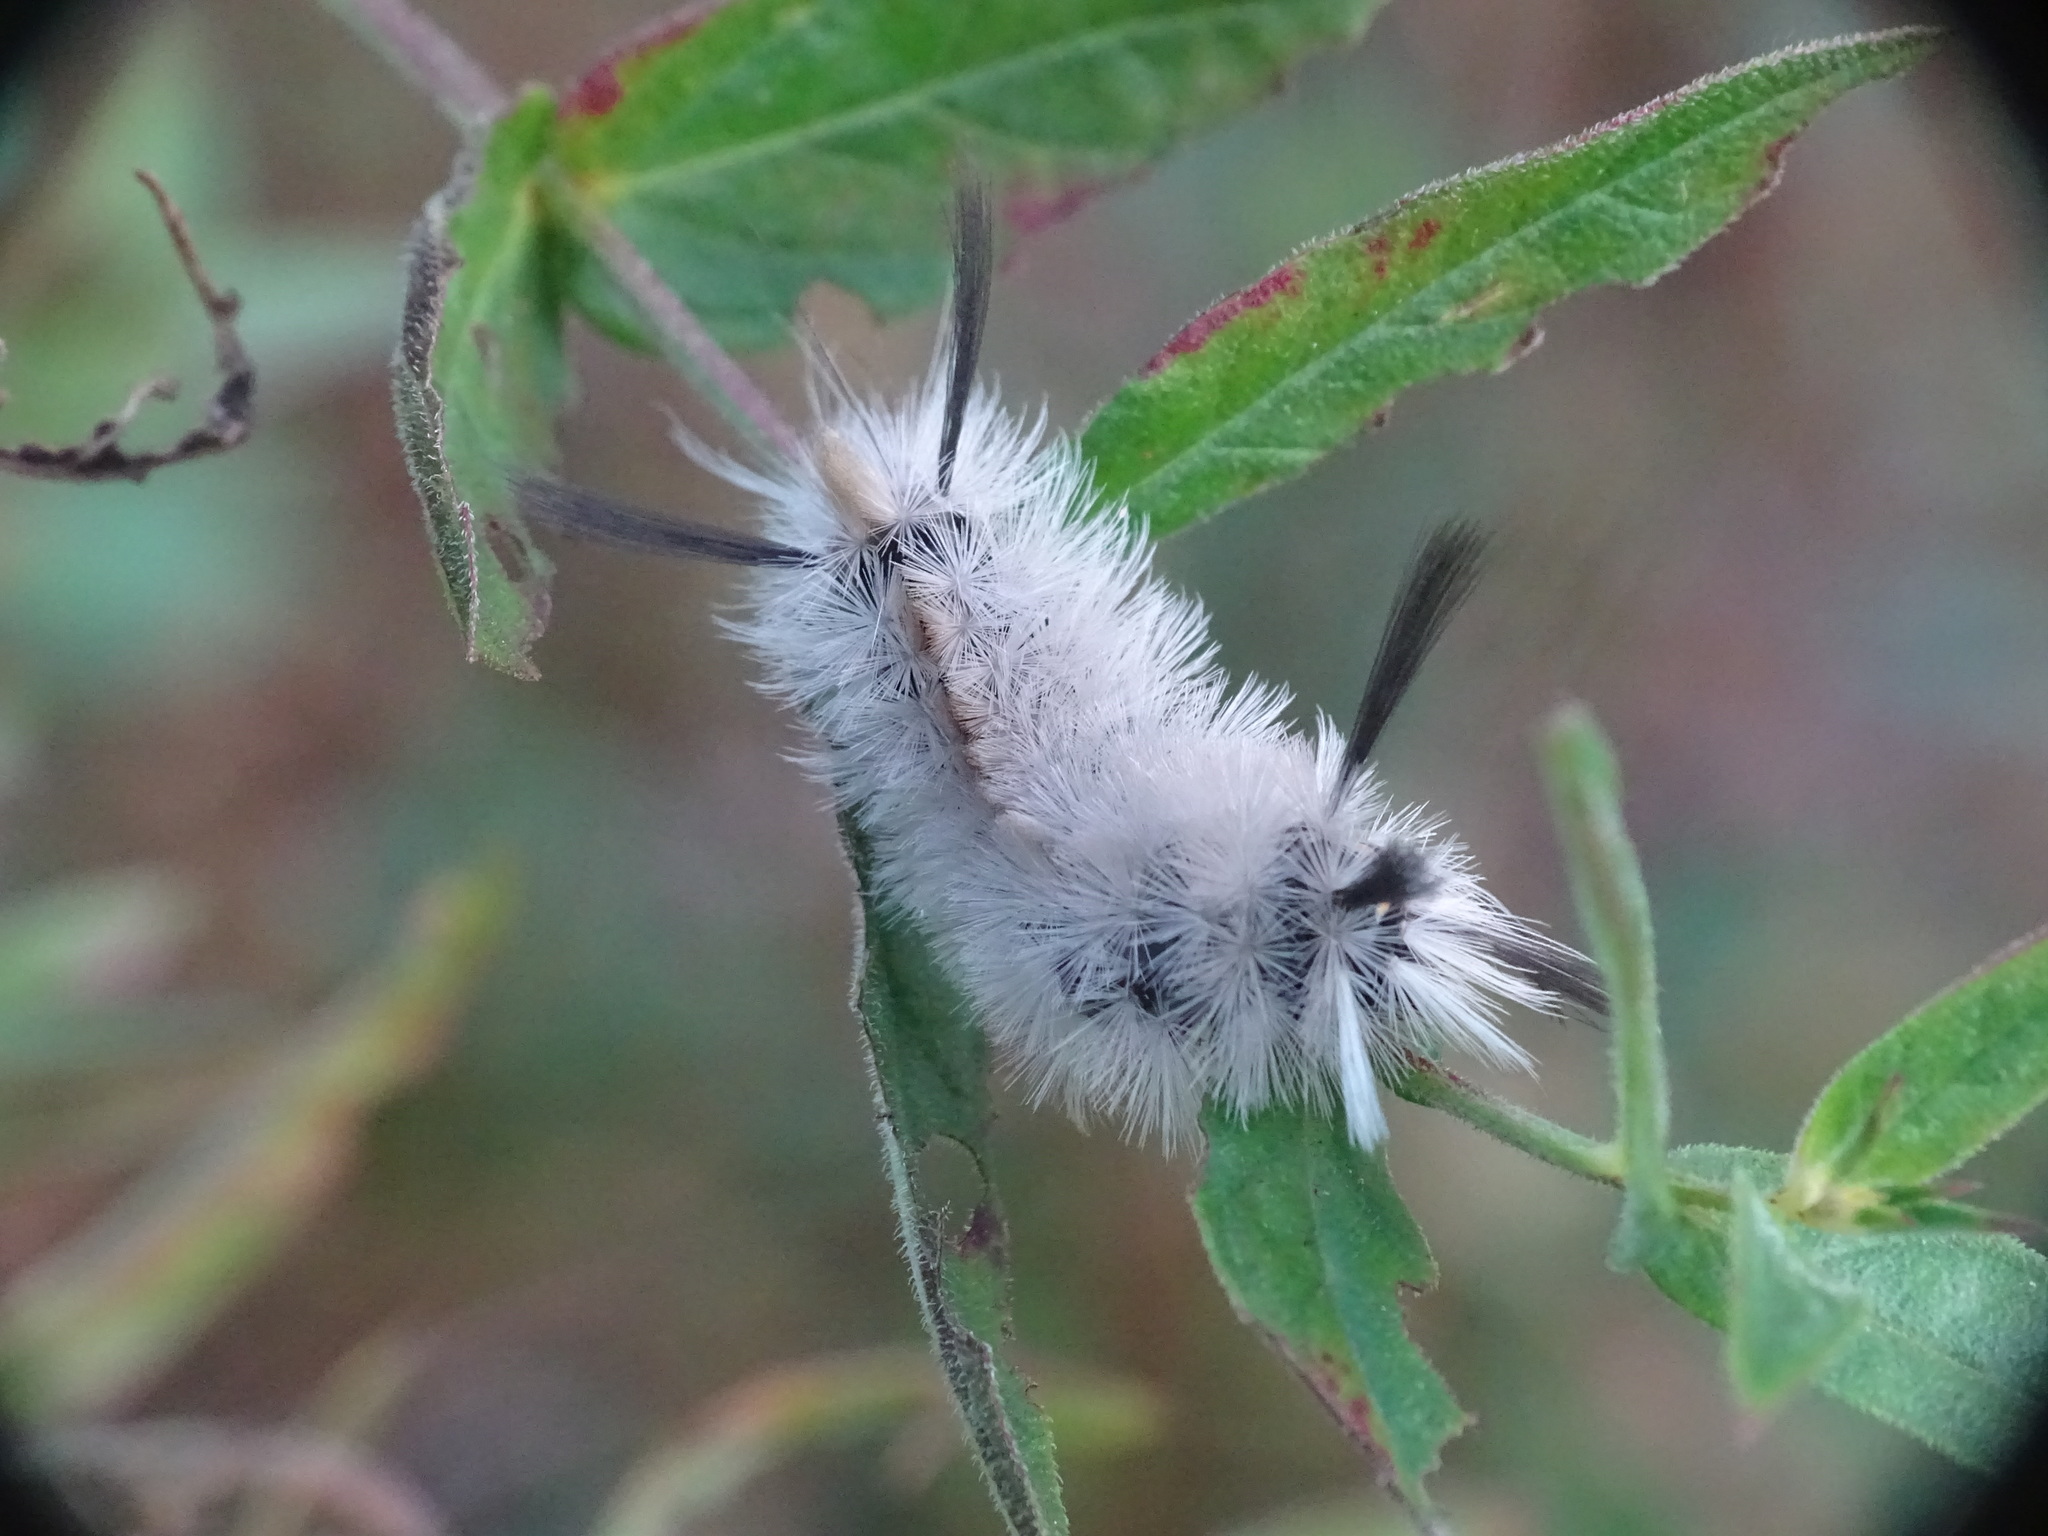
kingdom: Animalia
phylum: Arthropoda
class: Insecta
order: Lepidoptera
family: Erebidae
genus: Halysidota
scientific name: Halysidota tessellaris
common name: Banded tussock moth
